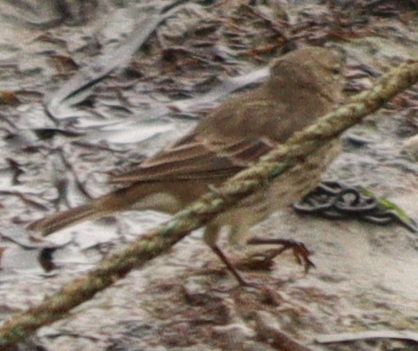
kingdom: Animalia
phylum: Chordata
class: Aves
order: Passeriformes
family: Motacillidae
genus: Anthus
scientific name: Anthus petrosus
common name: Eurasian rock pipit
